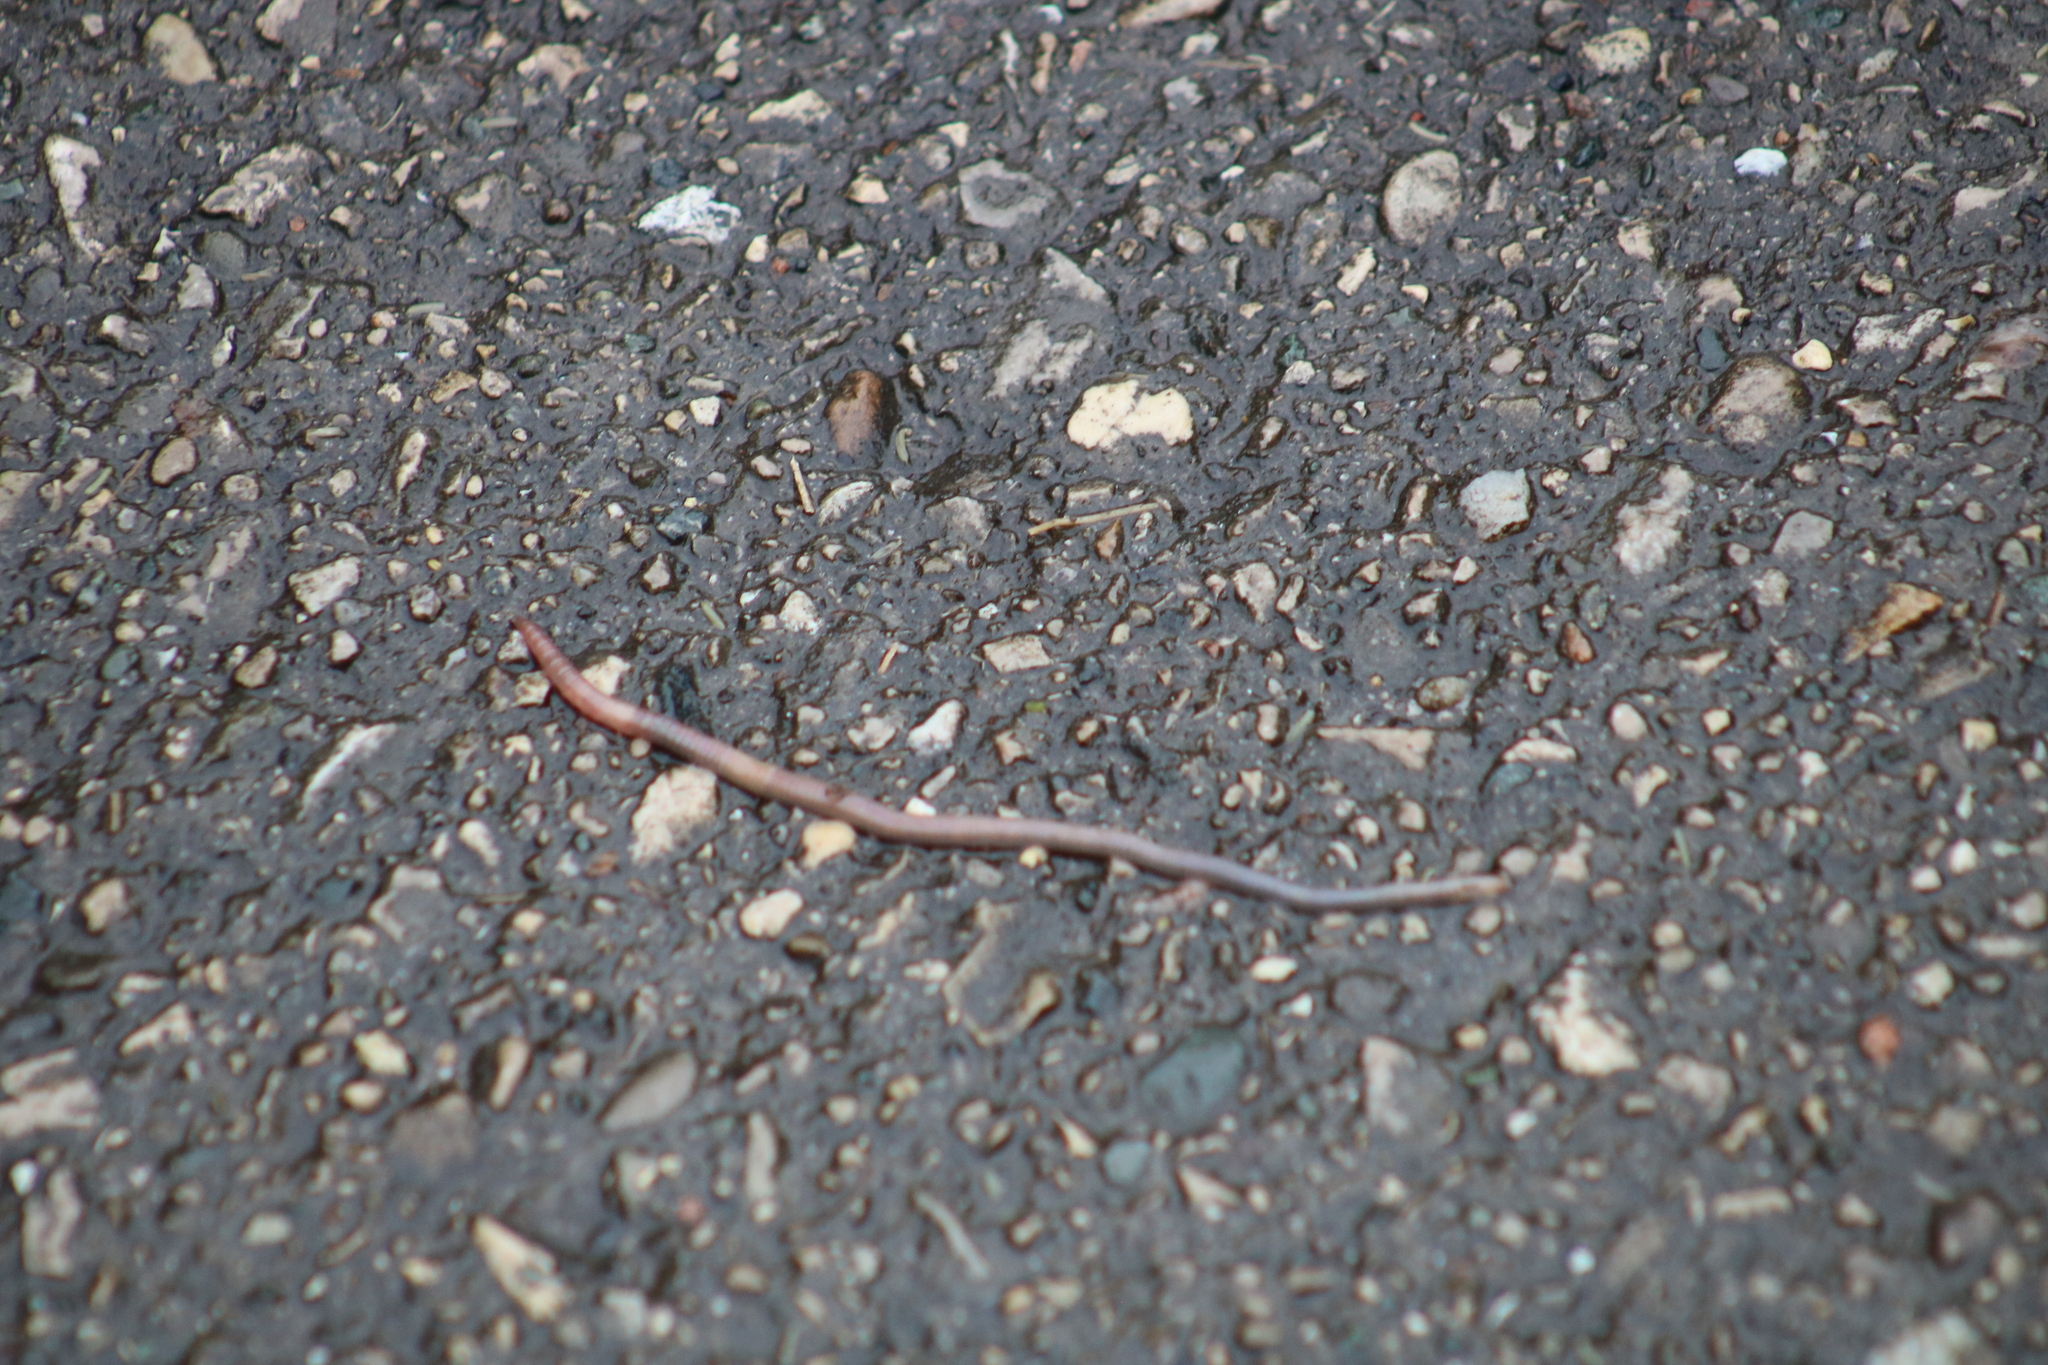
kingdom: Animalia
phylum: Annelida
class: Clitellata
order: Crassiclitellata
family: Lumbricidae
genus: Lumbricus
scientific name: Lumbricus terrestris
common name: Common earthworm
